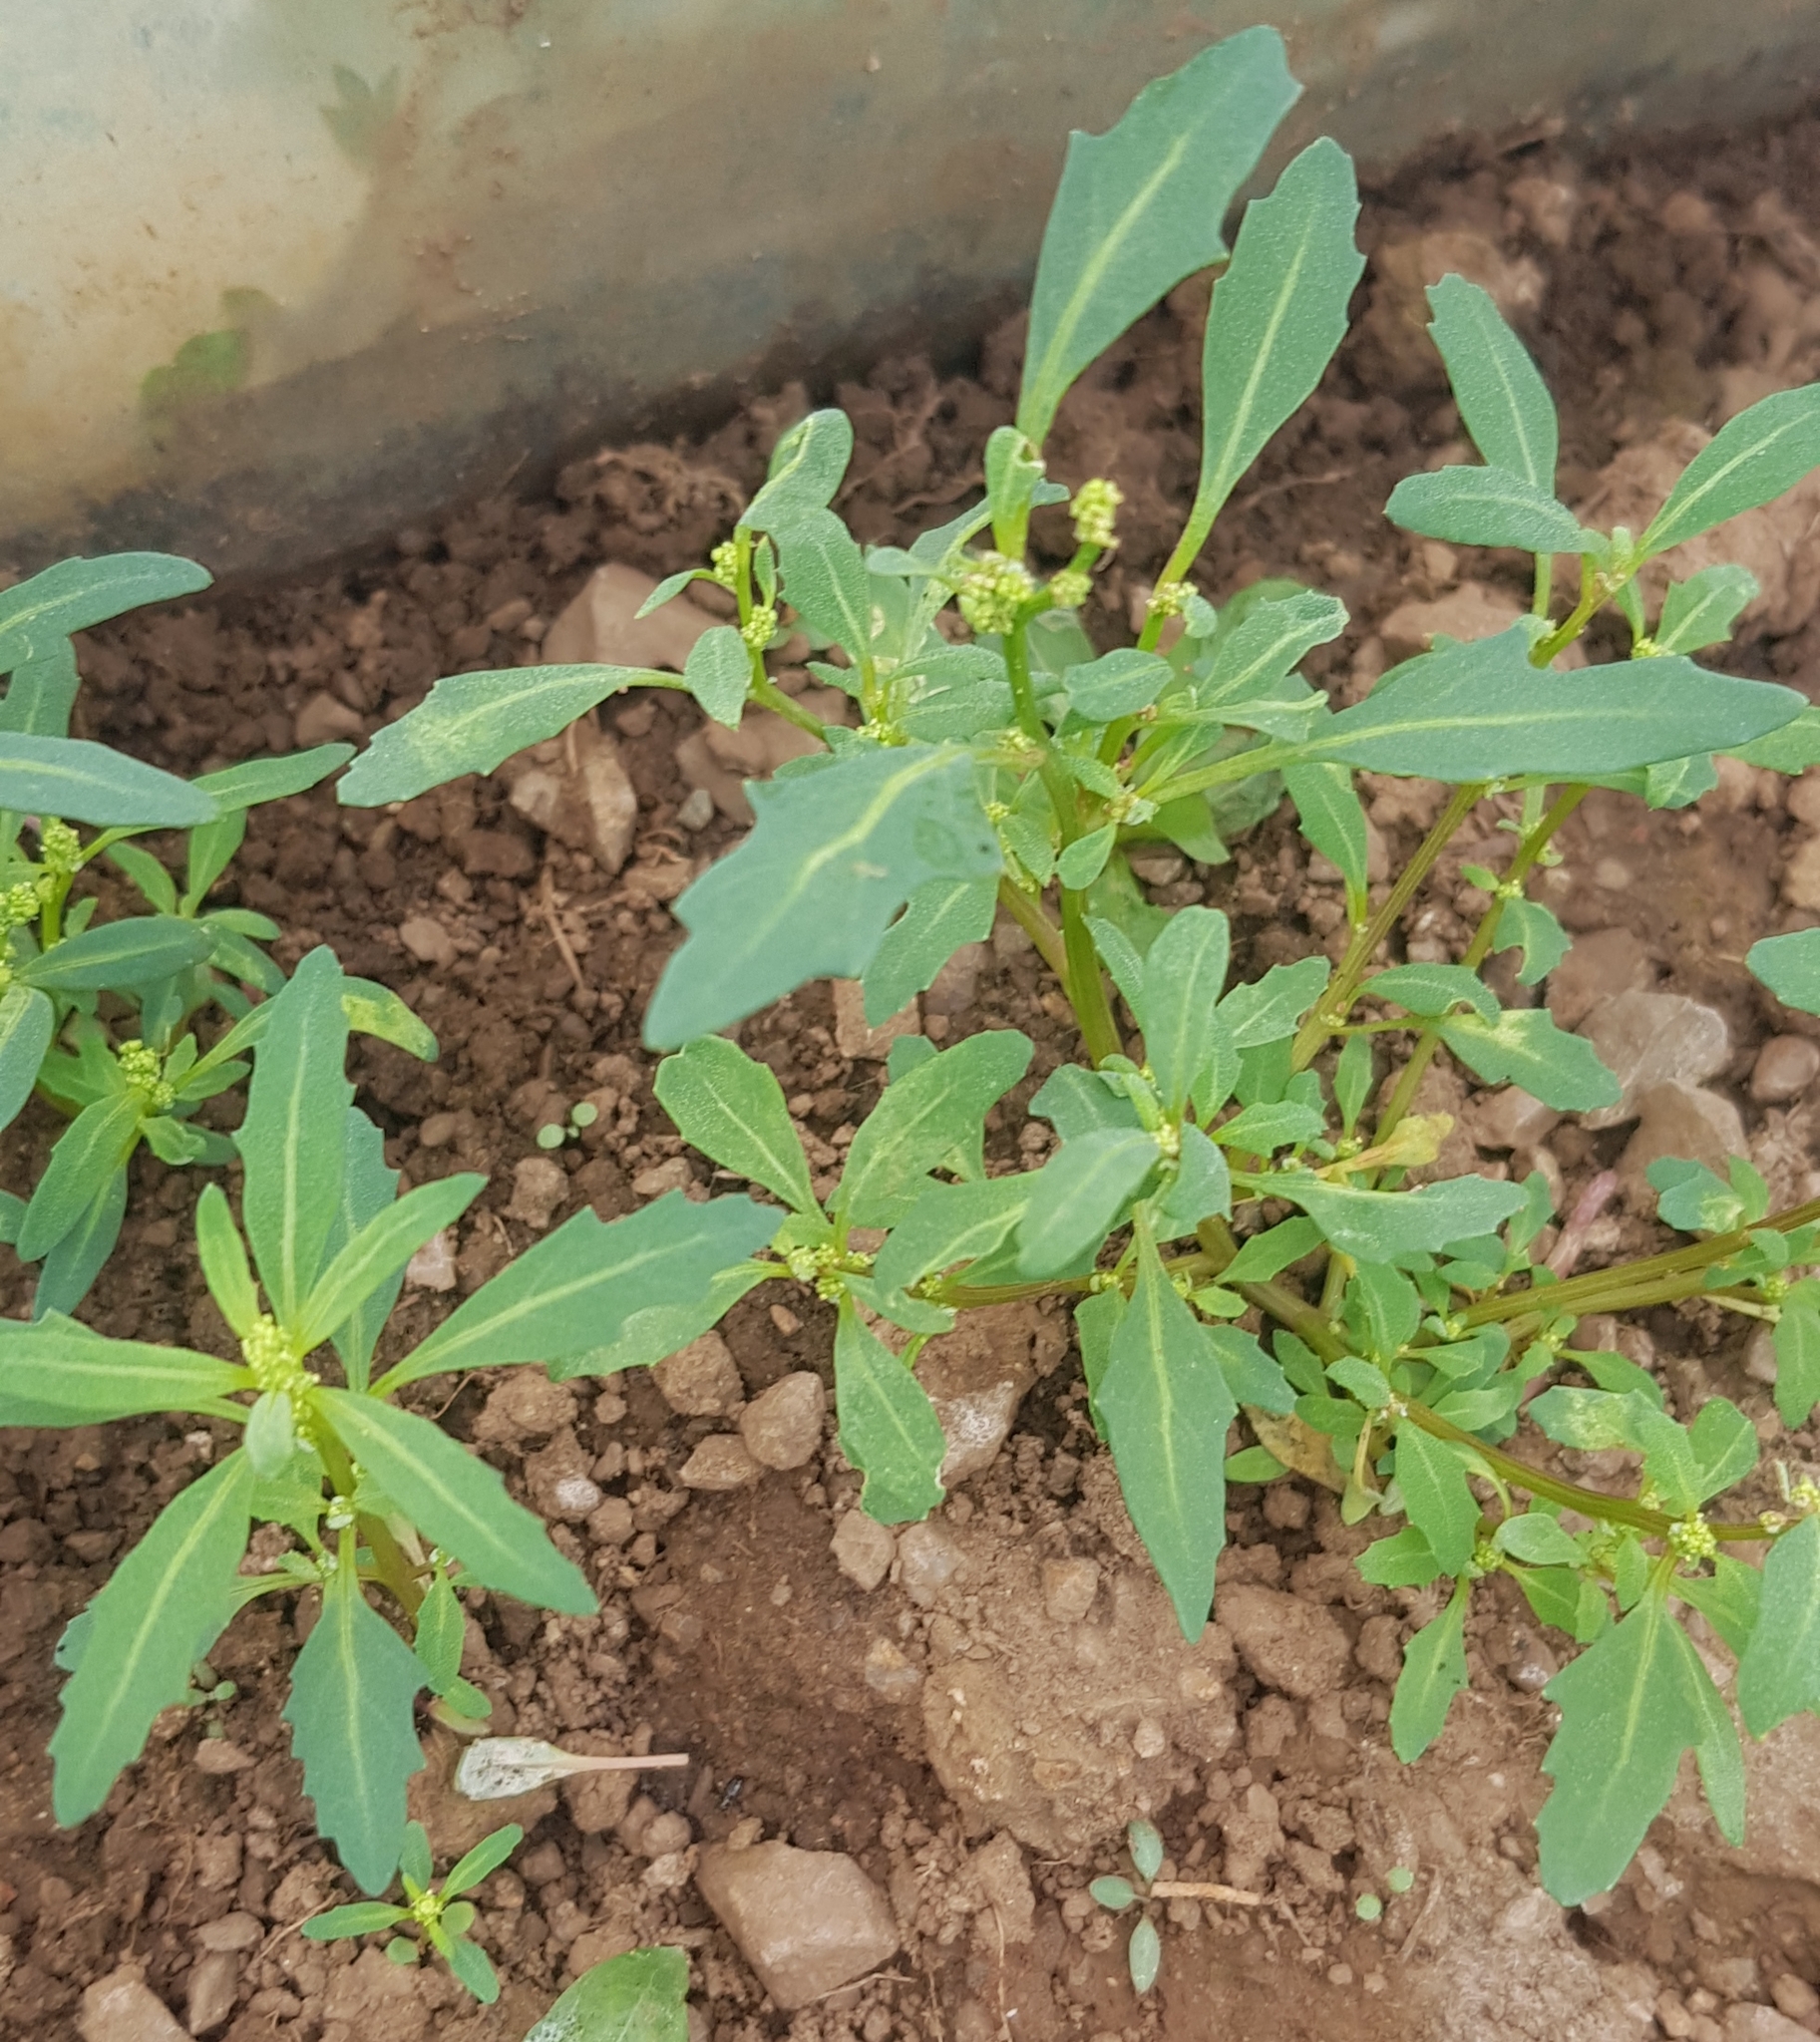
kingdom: Plantae
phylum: Tracheophyta
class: Magnoliopsida
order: Caryophyllales
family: Amaranthaceae
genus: Oxybasis
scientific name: Oxybasis glauca
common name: Glaucous goosefoot
